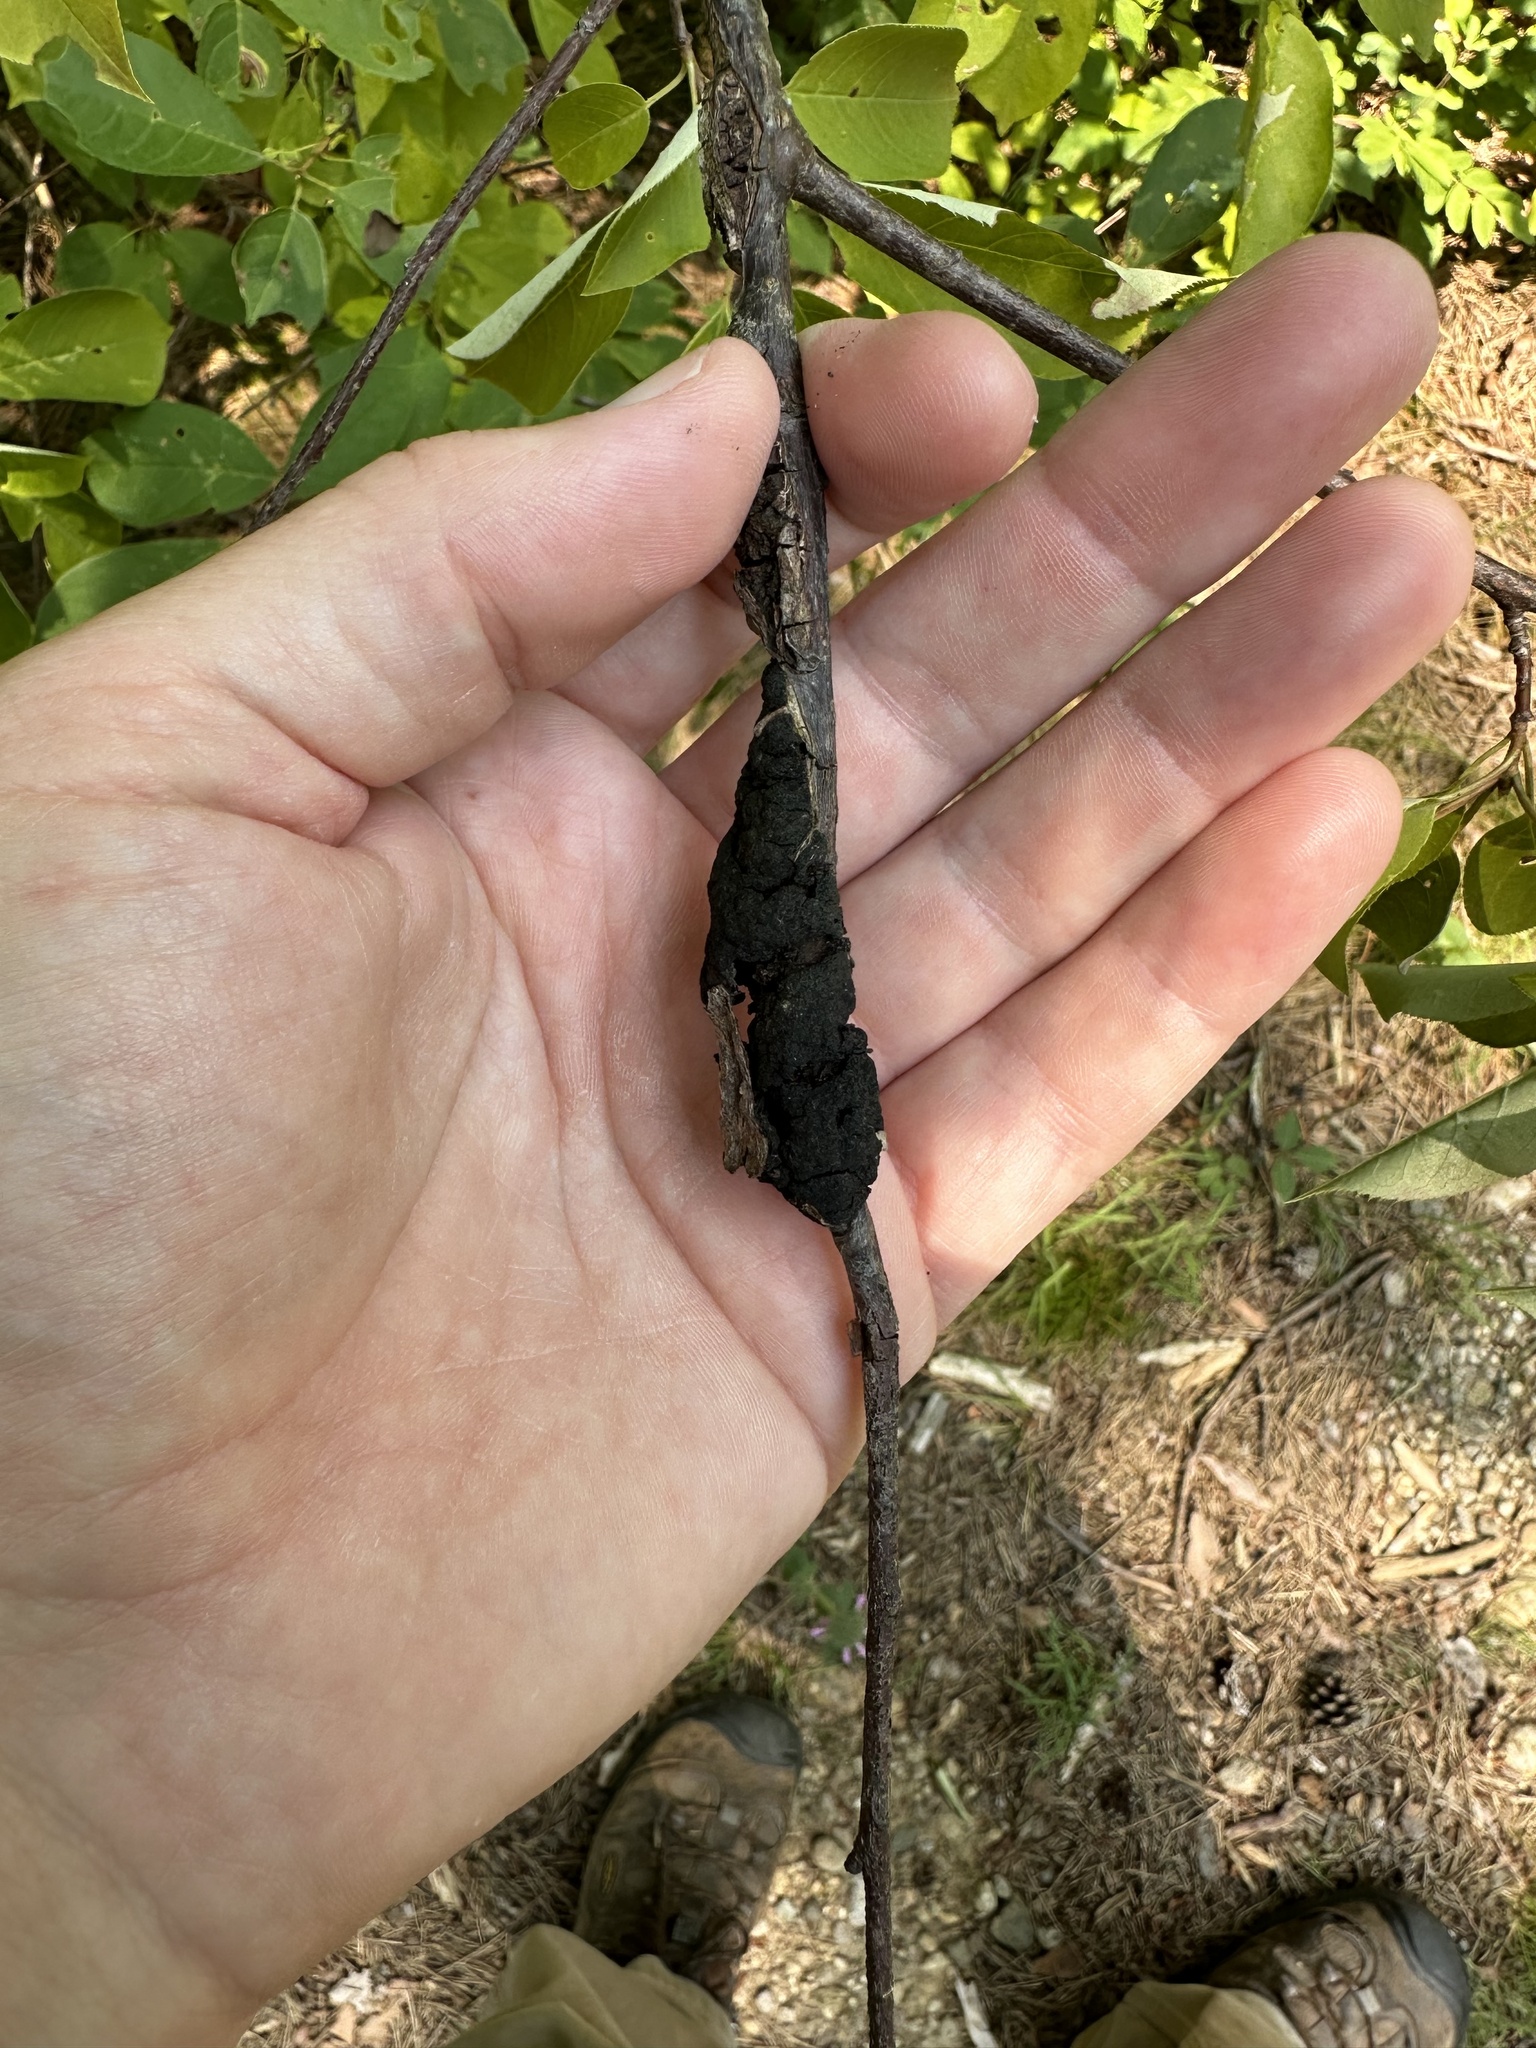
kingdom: Fungi
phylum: Ascomycota
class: Dothideomycetes
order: Venturiales
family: Venturiaceae
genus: Apiosporina
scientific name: Apiosporina morbosa
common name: Black knot
